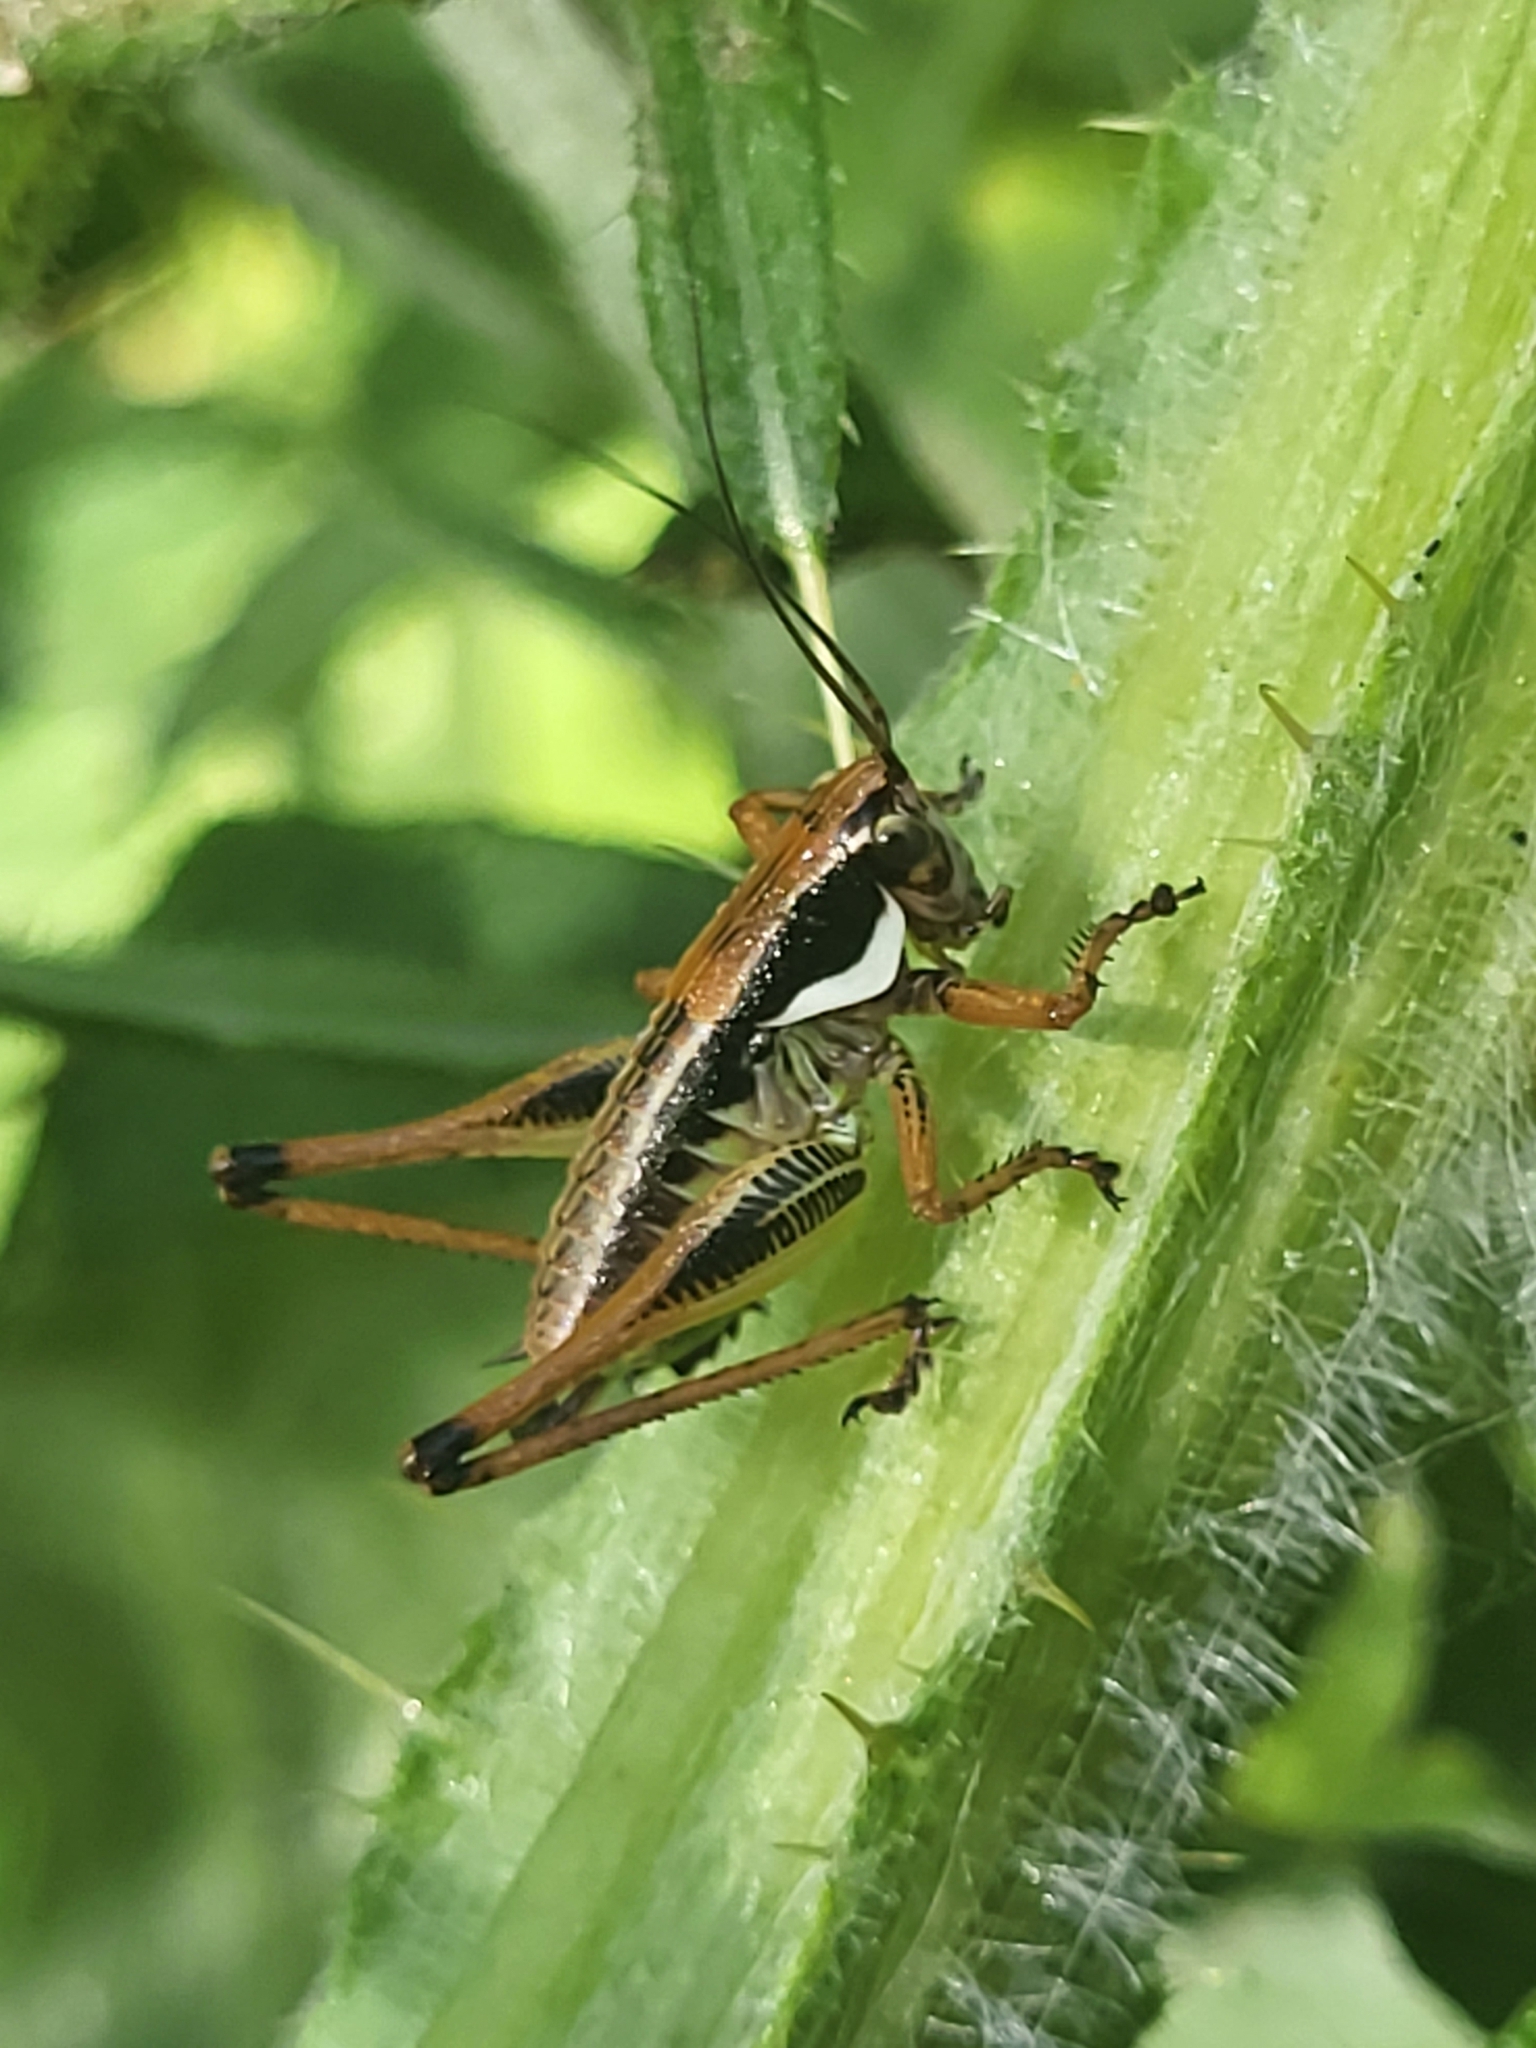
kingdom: Animalia
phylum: Arthropoda
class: Insecta
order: Orthoptera
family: Tettigoniidae
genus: Eupholidoptera
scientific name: Eupholidoptera garganica
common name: Gargano marbled bush-cricket
